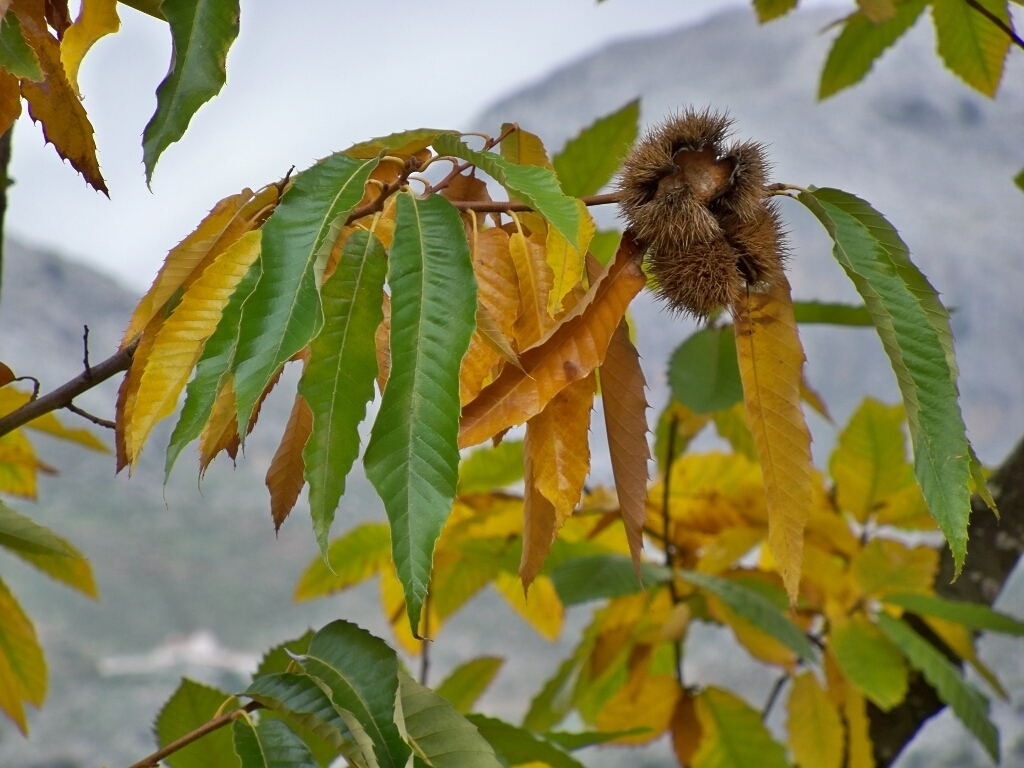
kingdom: Plantae
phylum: Tracheophyta
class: Magnoliopsida
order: Fagales
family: Fagaceae
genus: Castanea
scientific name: Castanea sativa
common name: Sweet chestnut
